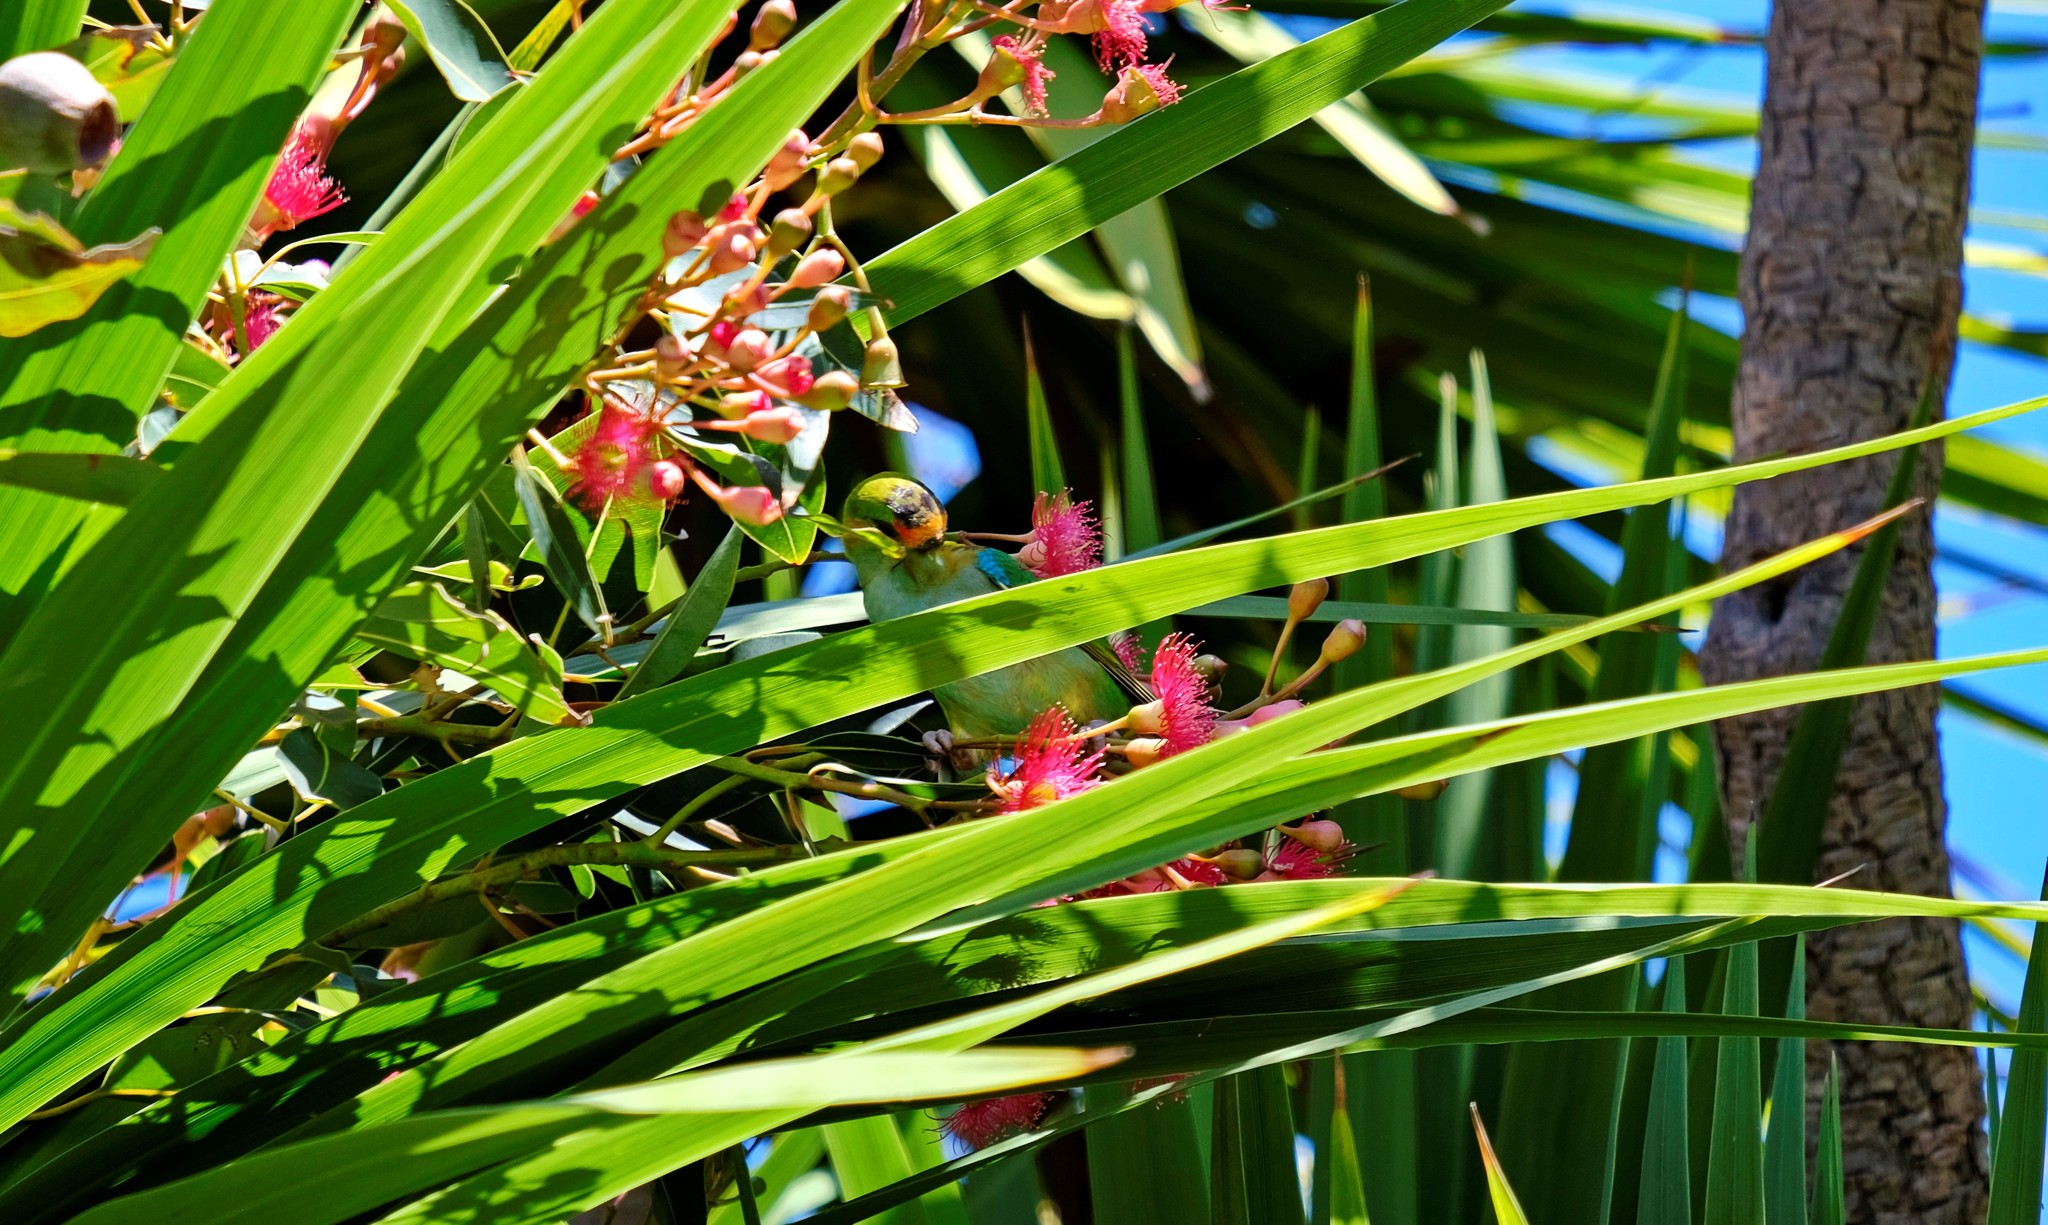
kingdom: Animalia
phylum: Chordata
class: Aves
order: Psittaciformes
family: Psittaculidae
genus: Parvipsitta
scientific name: Parvipsitta porphyrocephala
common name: Purple-crowned lorikeet
